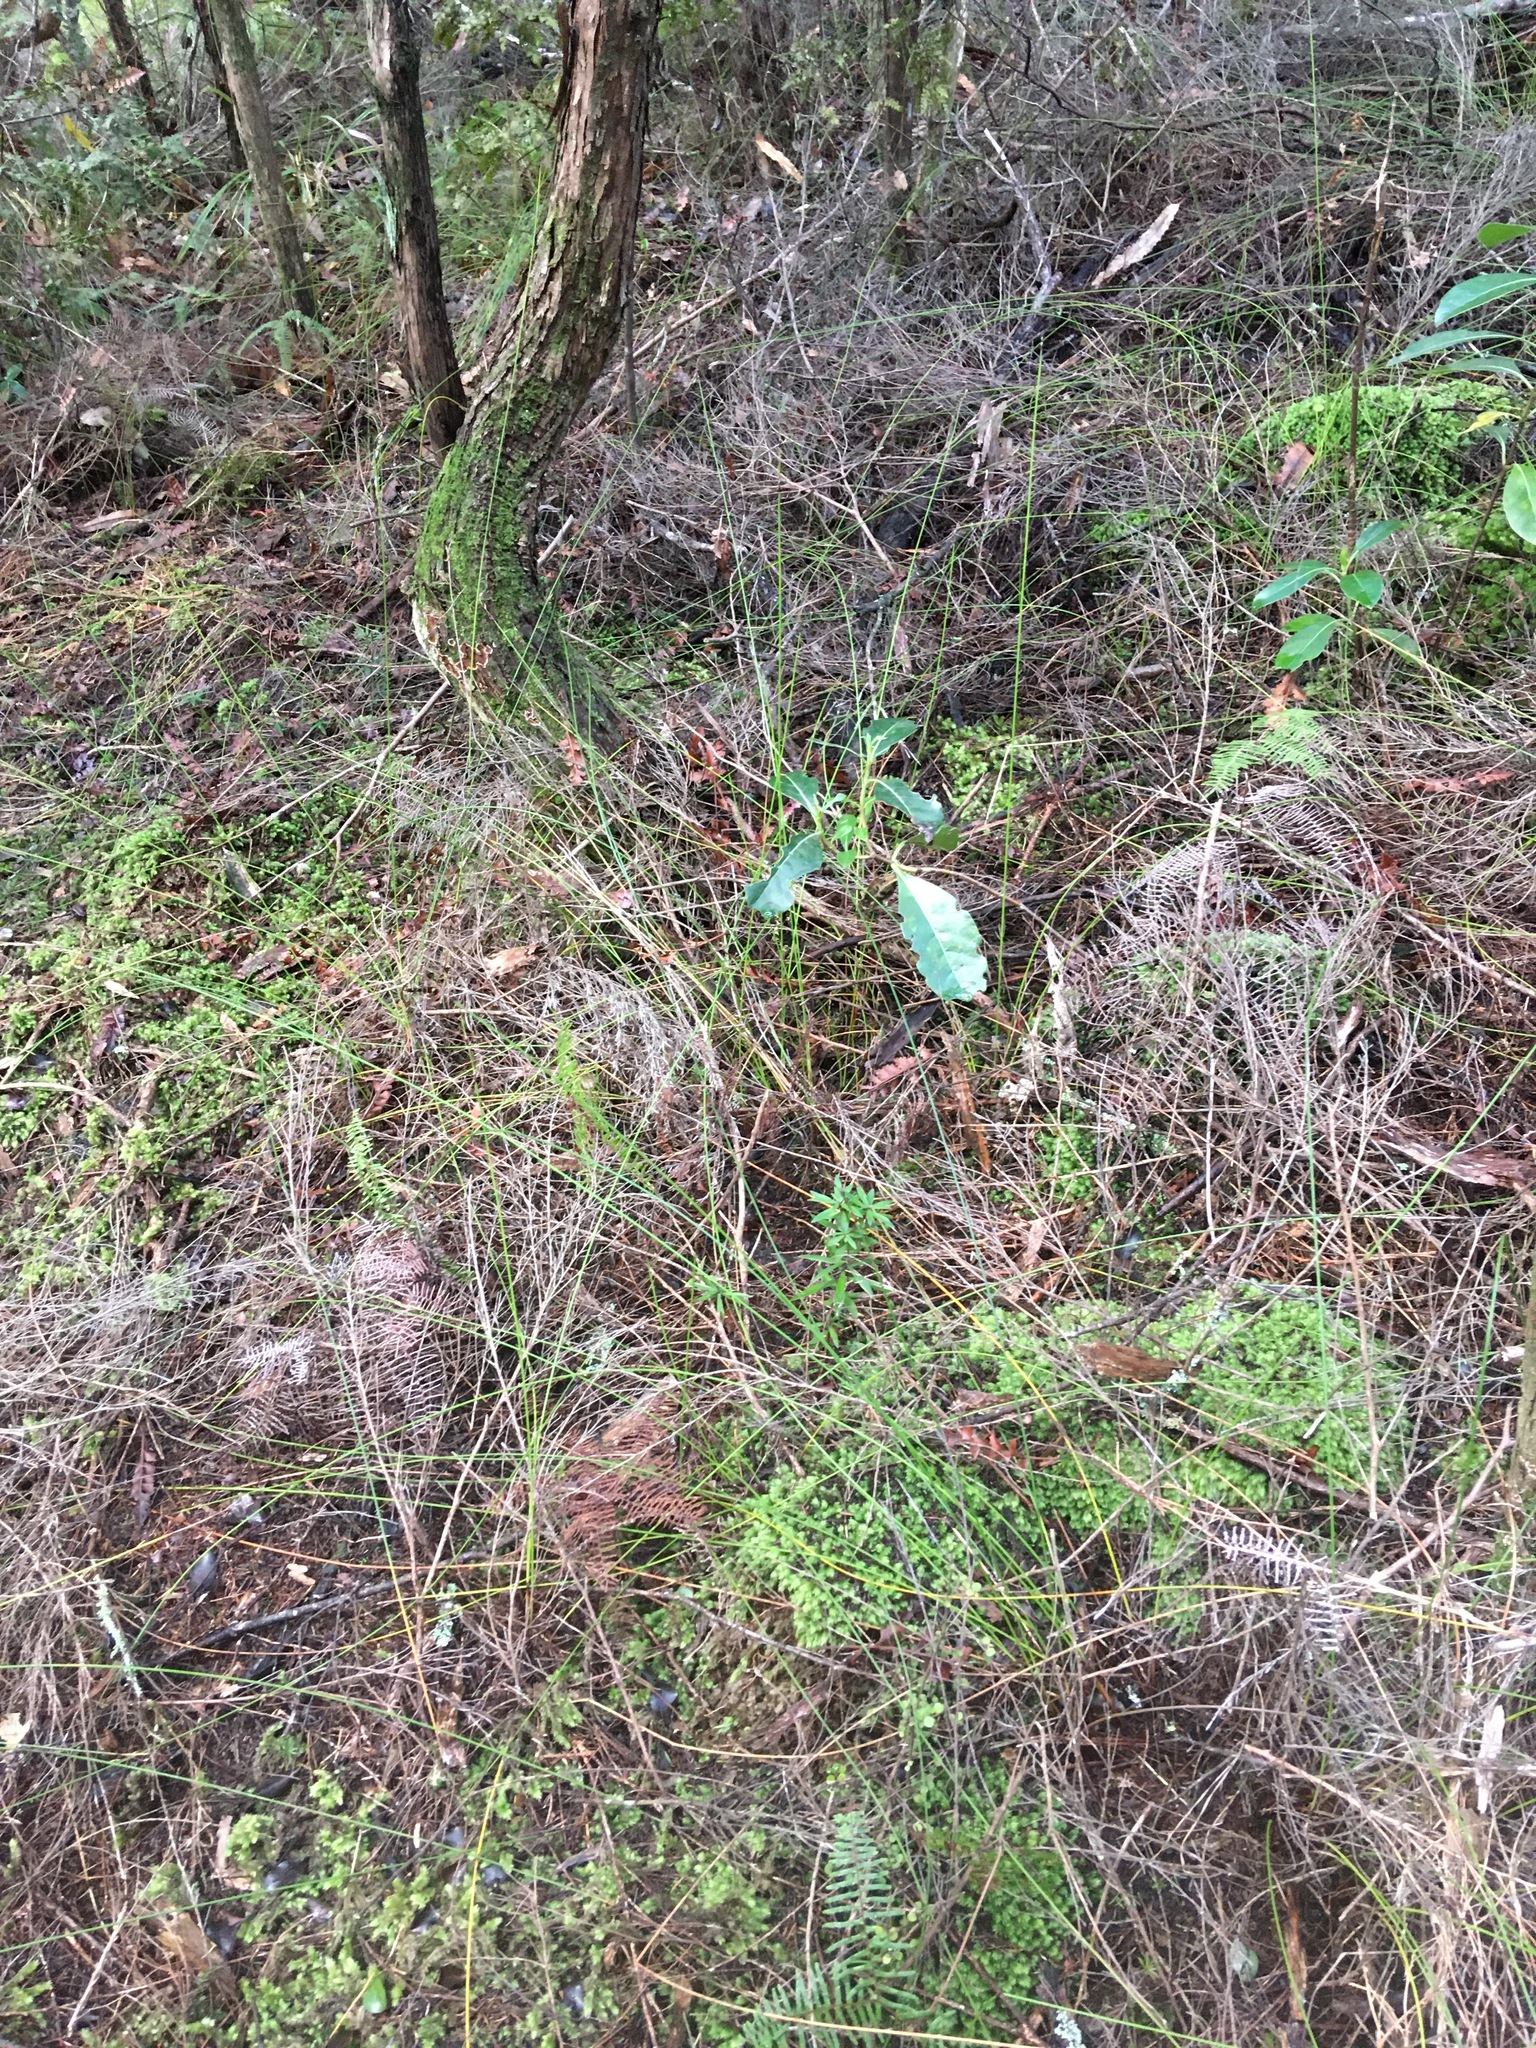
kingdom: Plantae
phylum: Tracheophyta
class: Magnoliopsida
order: Gentianales
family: Rubiaceae
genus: Coprosma
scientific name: Coprosma lucida
